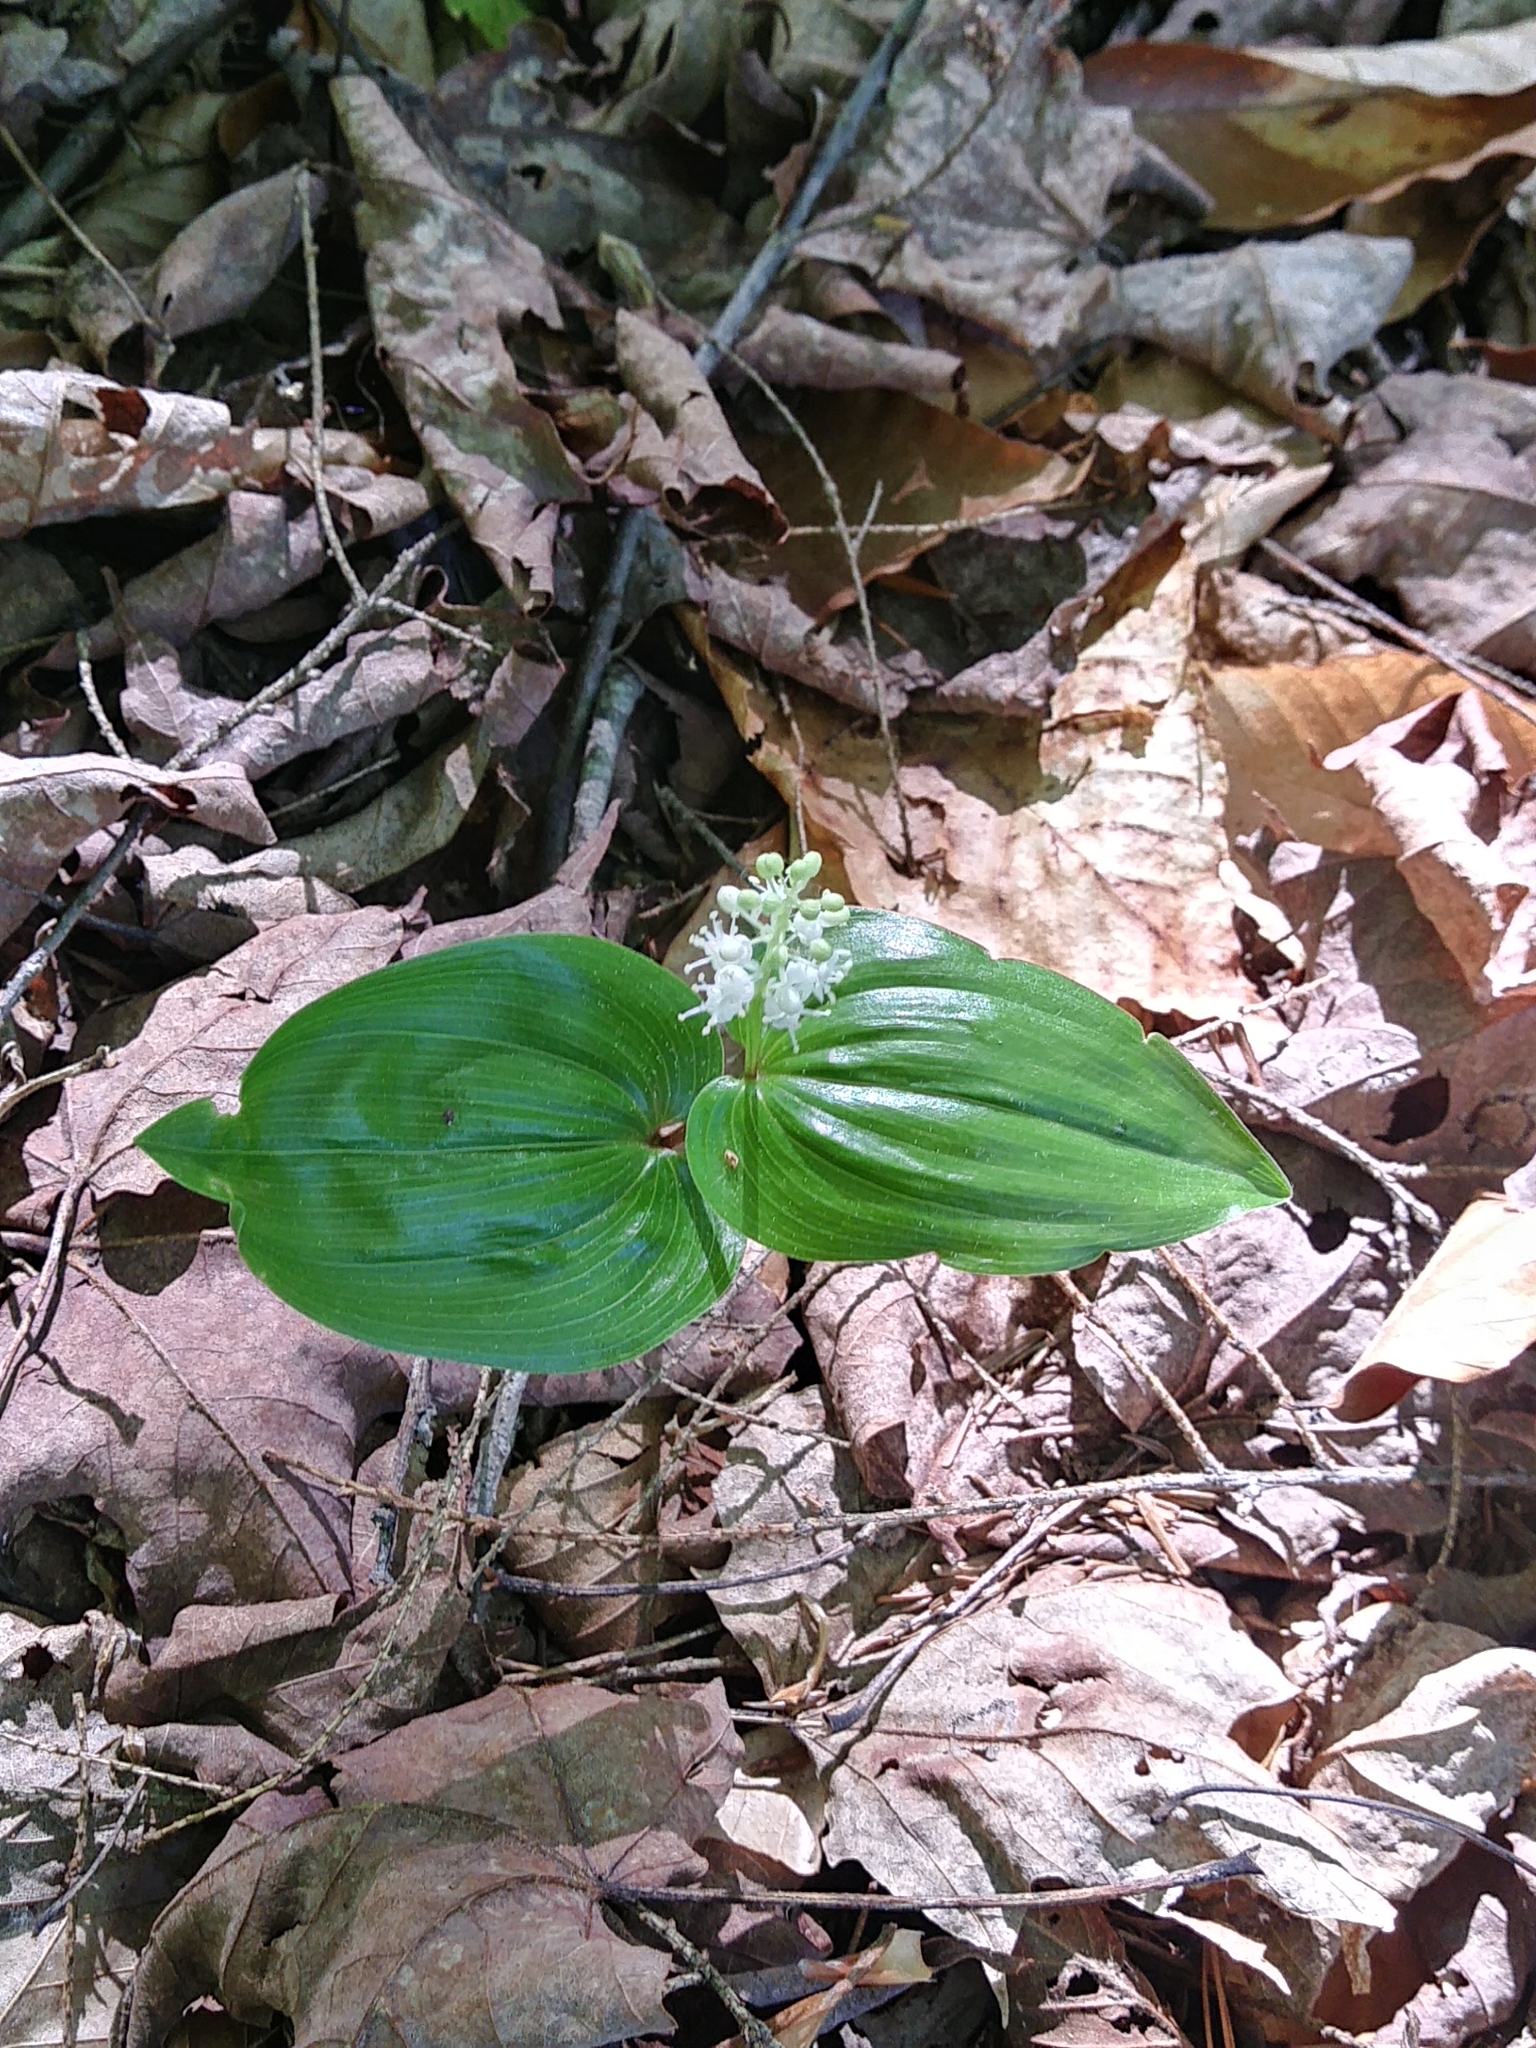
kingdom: Plantae
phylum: Tracheophyta
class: Liliopsida
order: Asparagales
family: Asparagaceae
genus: Maianthemum
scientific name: Maianthemum canadense
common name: False lily-of-the-valley
